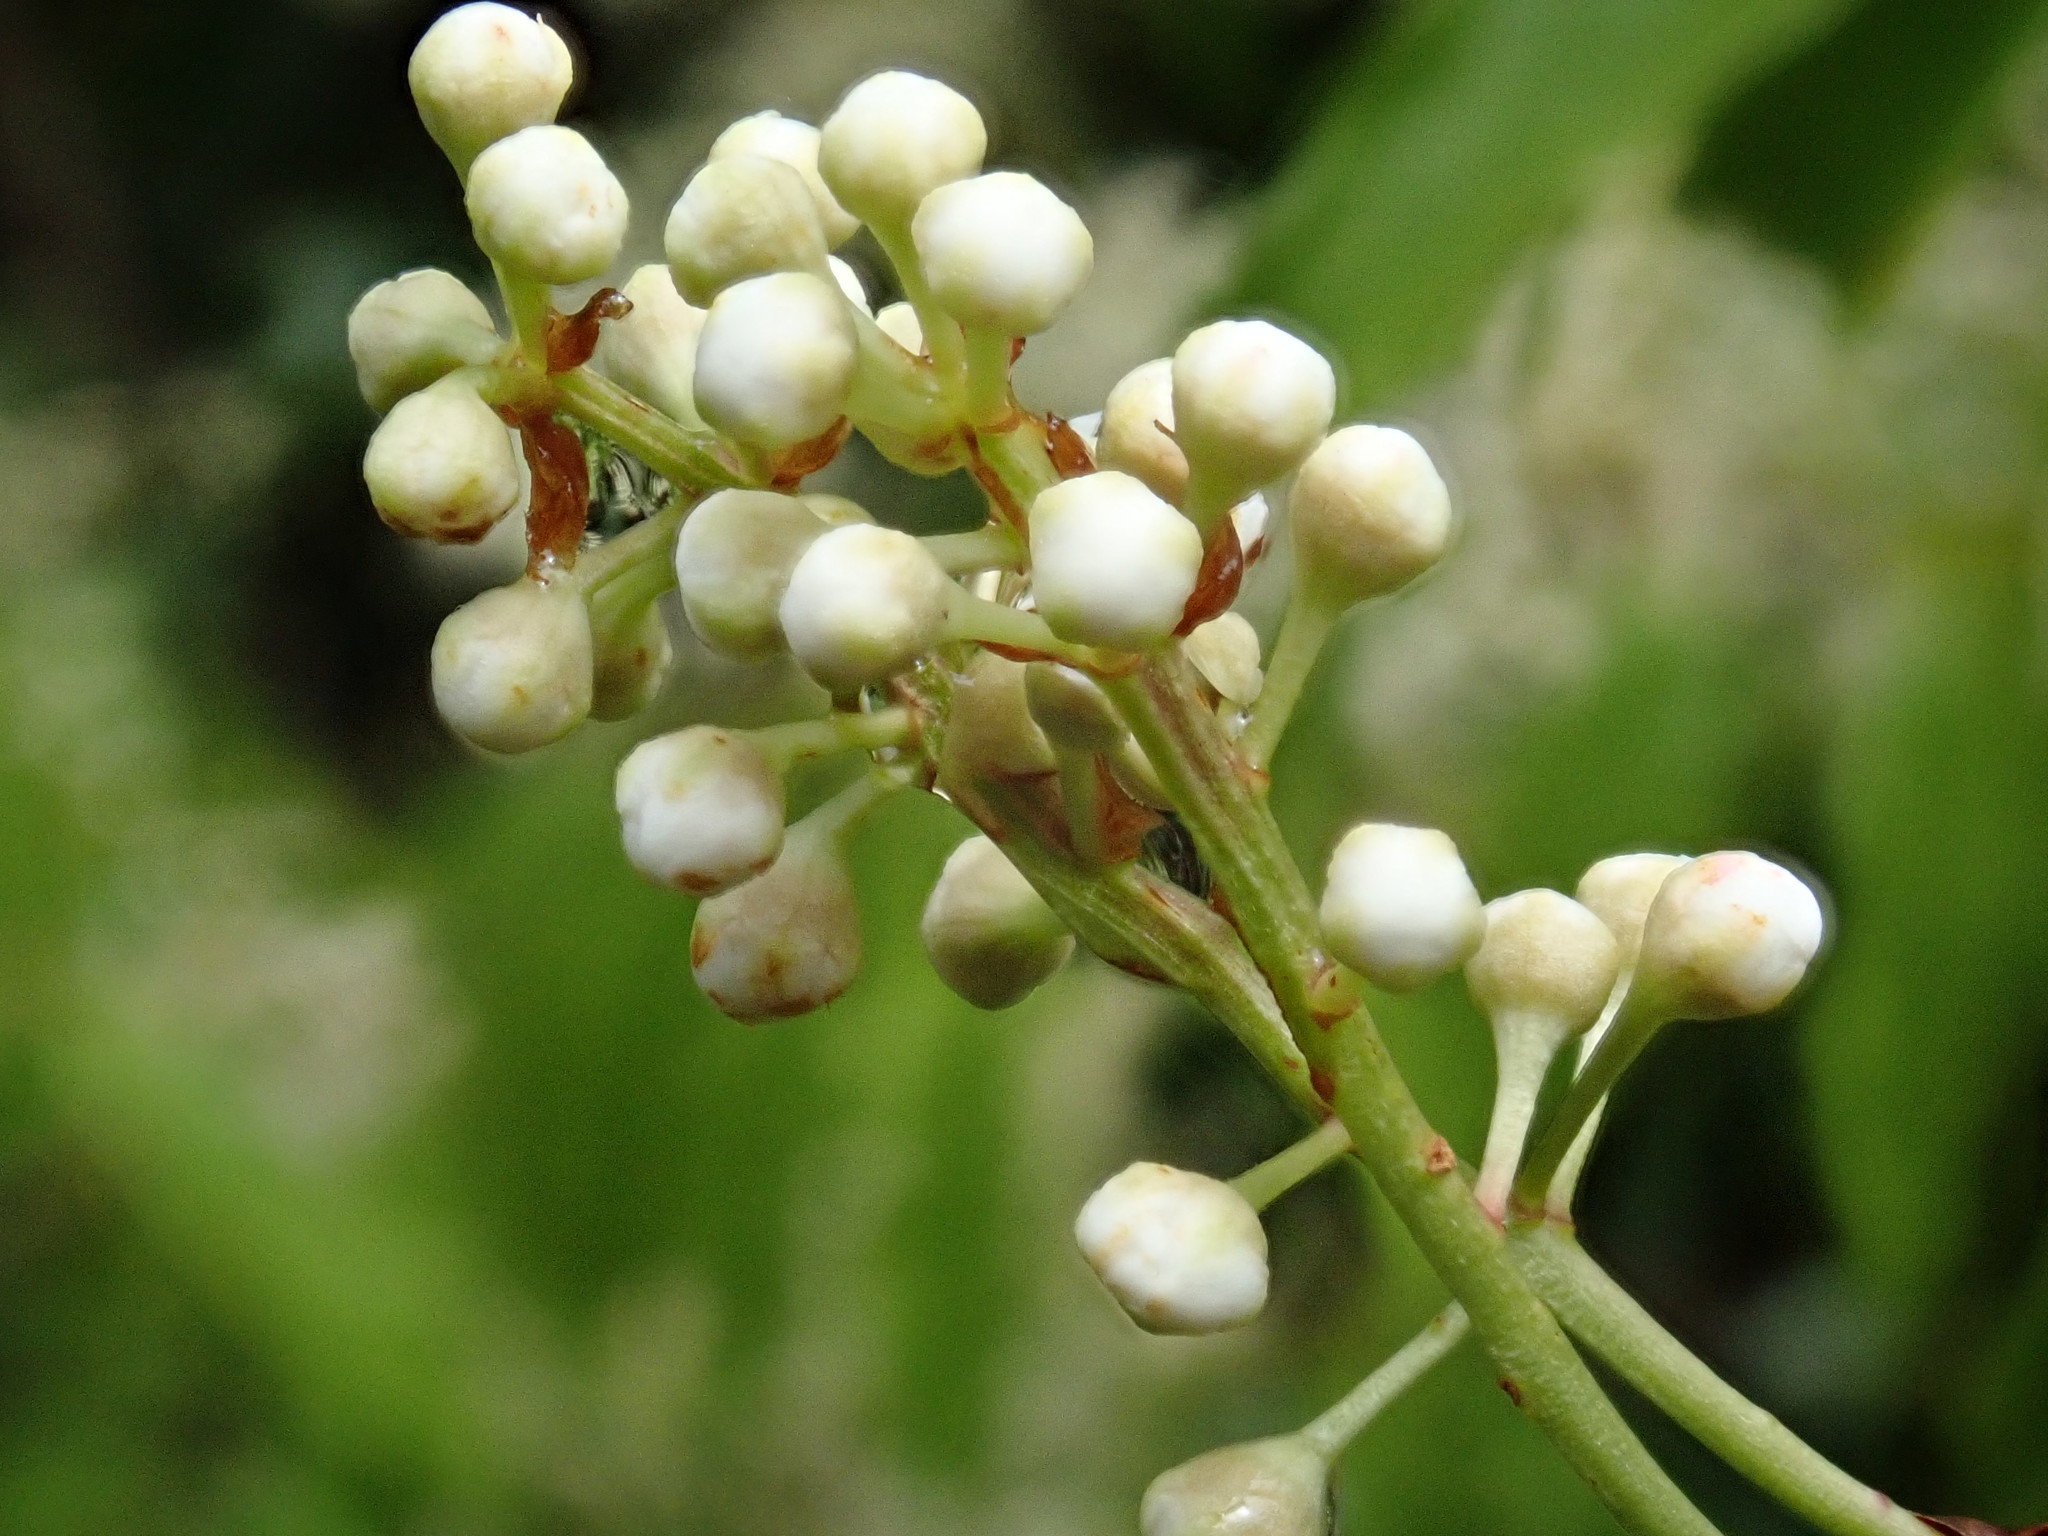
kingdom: Plantae
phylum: Tracheophyta
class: Magnoliopsida
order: Rosales
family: Rosaceae
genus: Prunus
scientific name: Prunus phaeosticta
